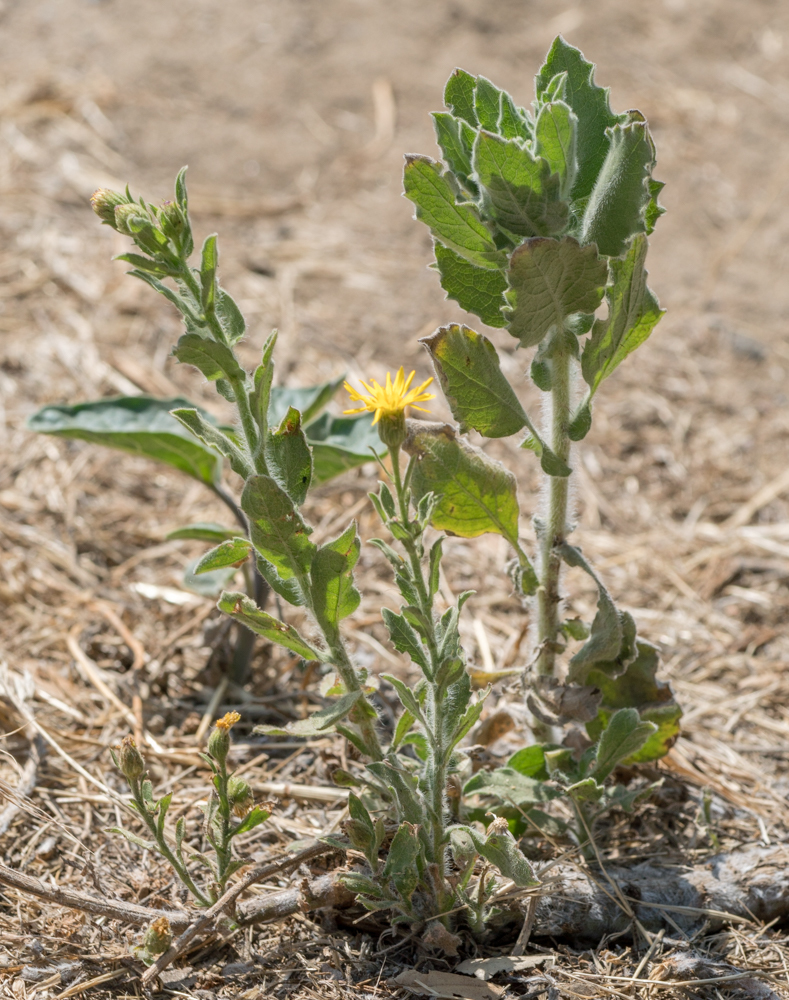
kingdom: Plantae
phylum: Tracheophyta
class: Magnoliopsida
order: Asterales
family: Asteraceae
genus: Heterotheca
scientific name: Heterotheca grandiflora
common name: Telegraphweed
